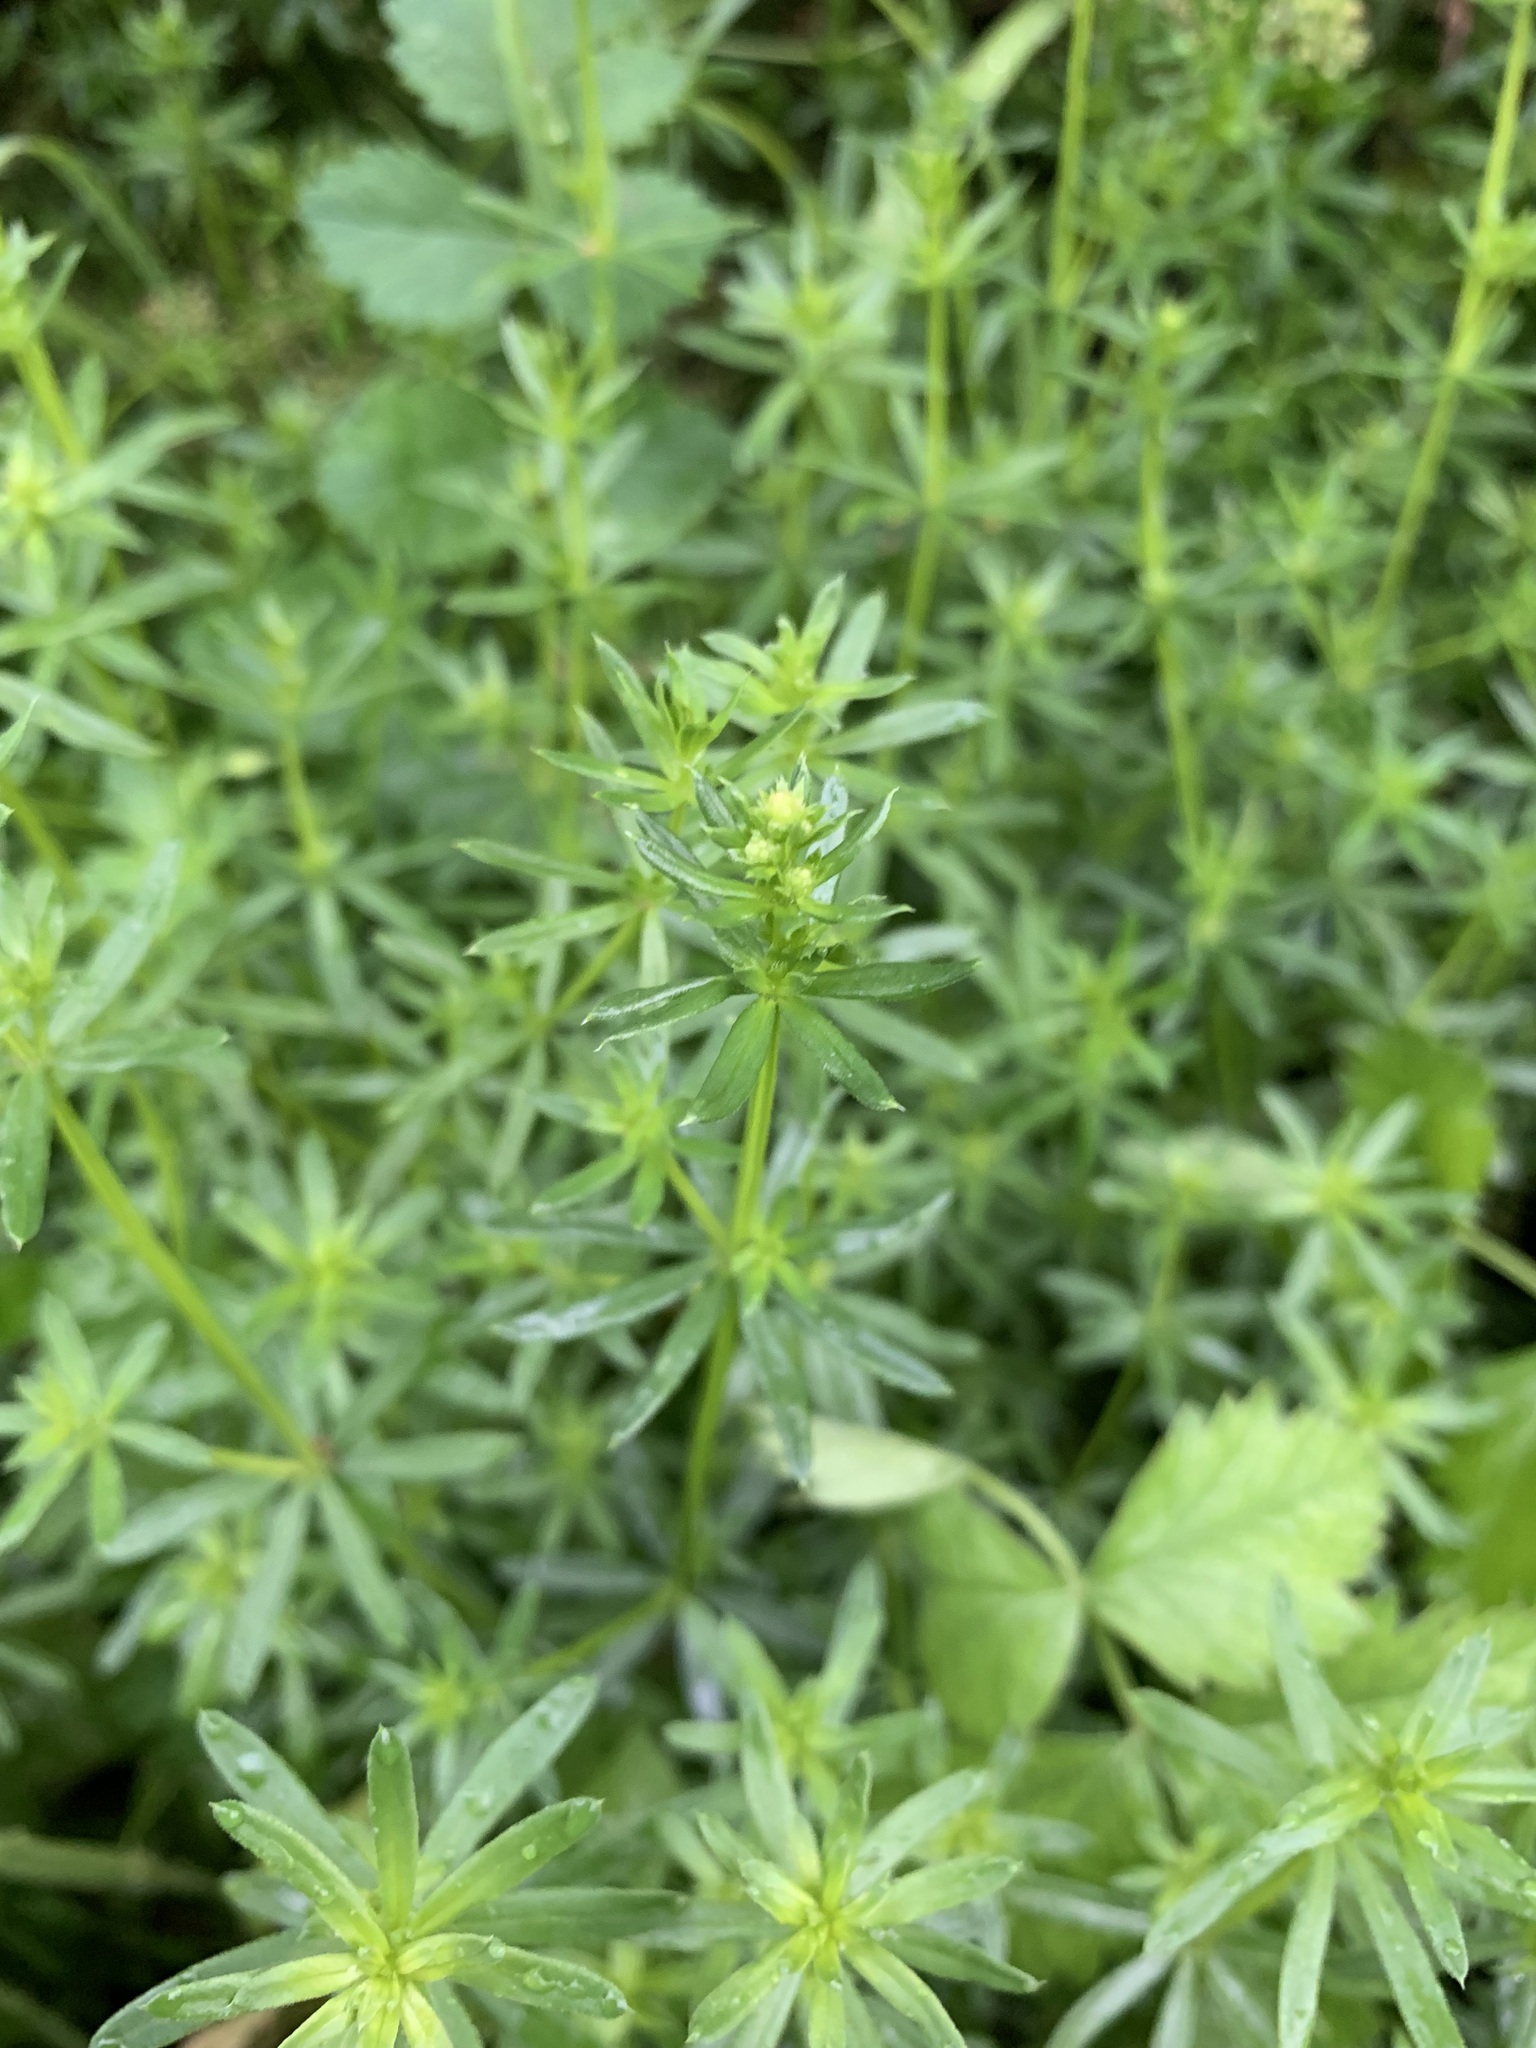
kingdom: Plantae
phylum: Tracheophyta
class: Magnoliopsida
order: Gentianales
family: Rubiaceae
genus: Galium
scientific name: Galium mollugo
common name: Hedge bedstraw
